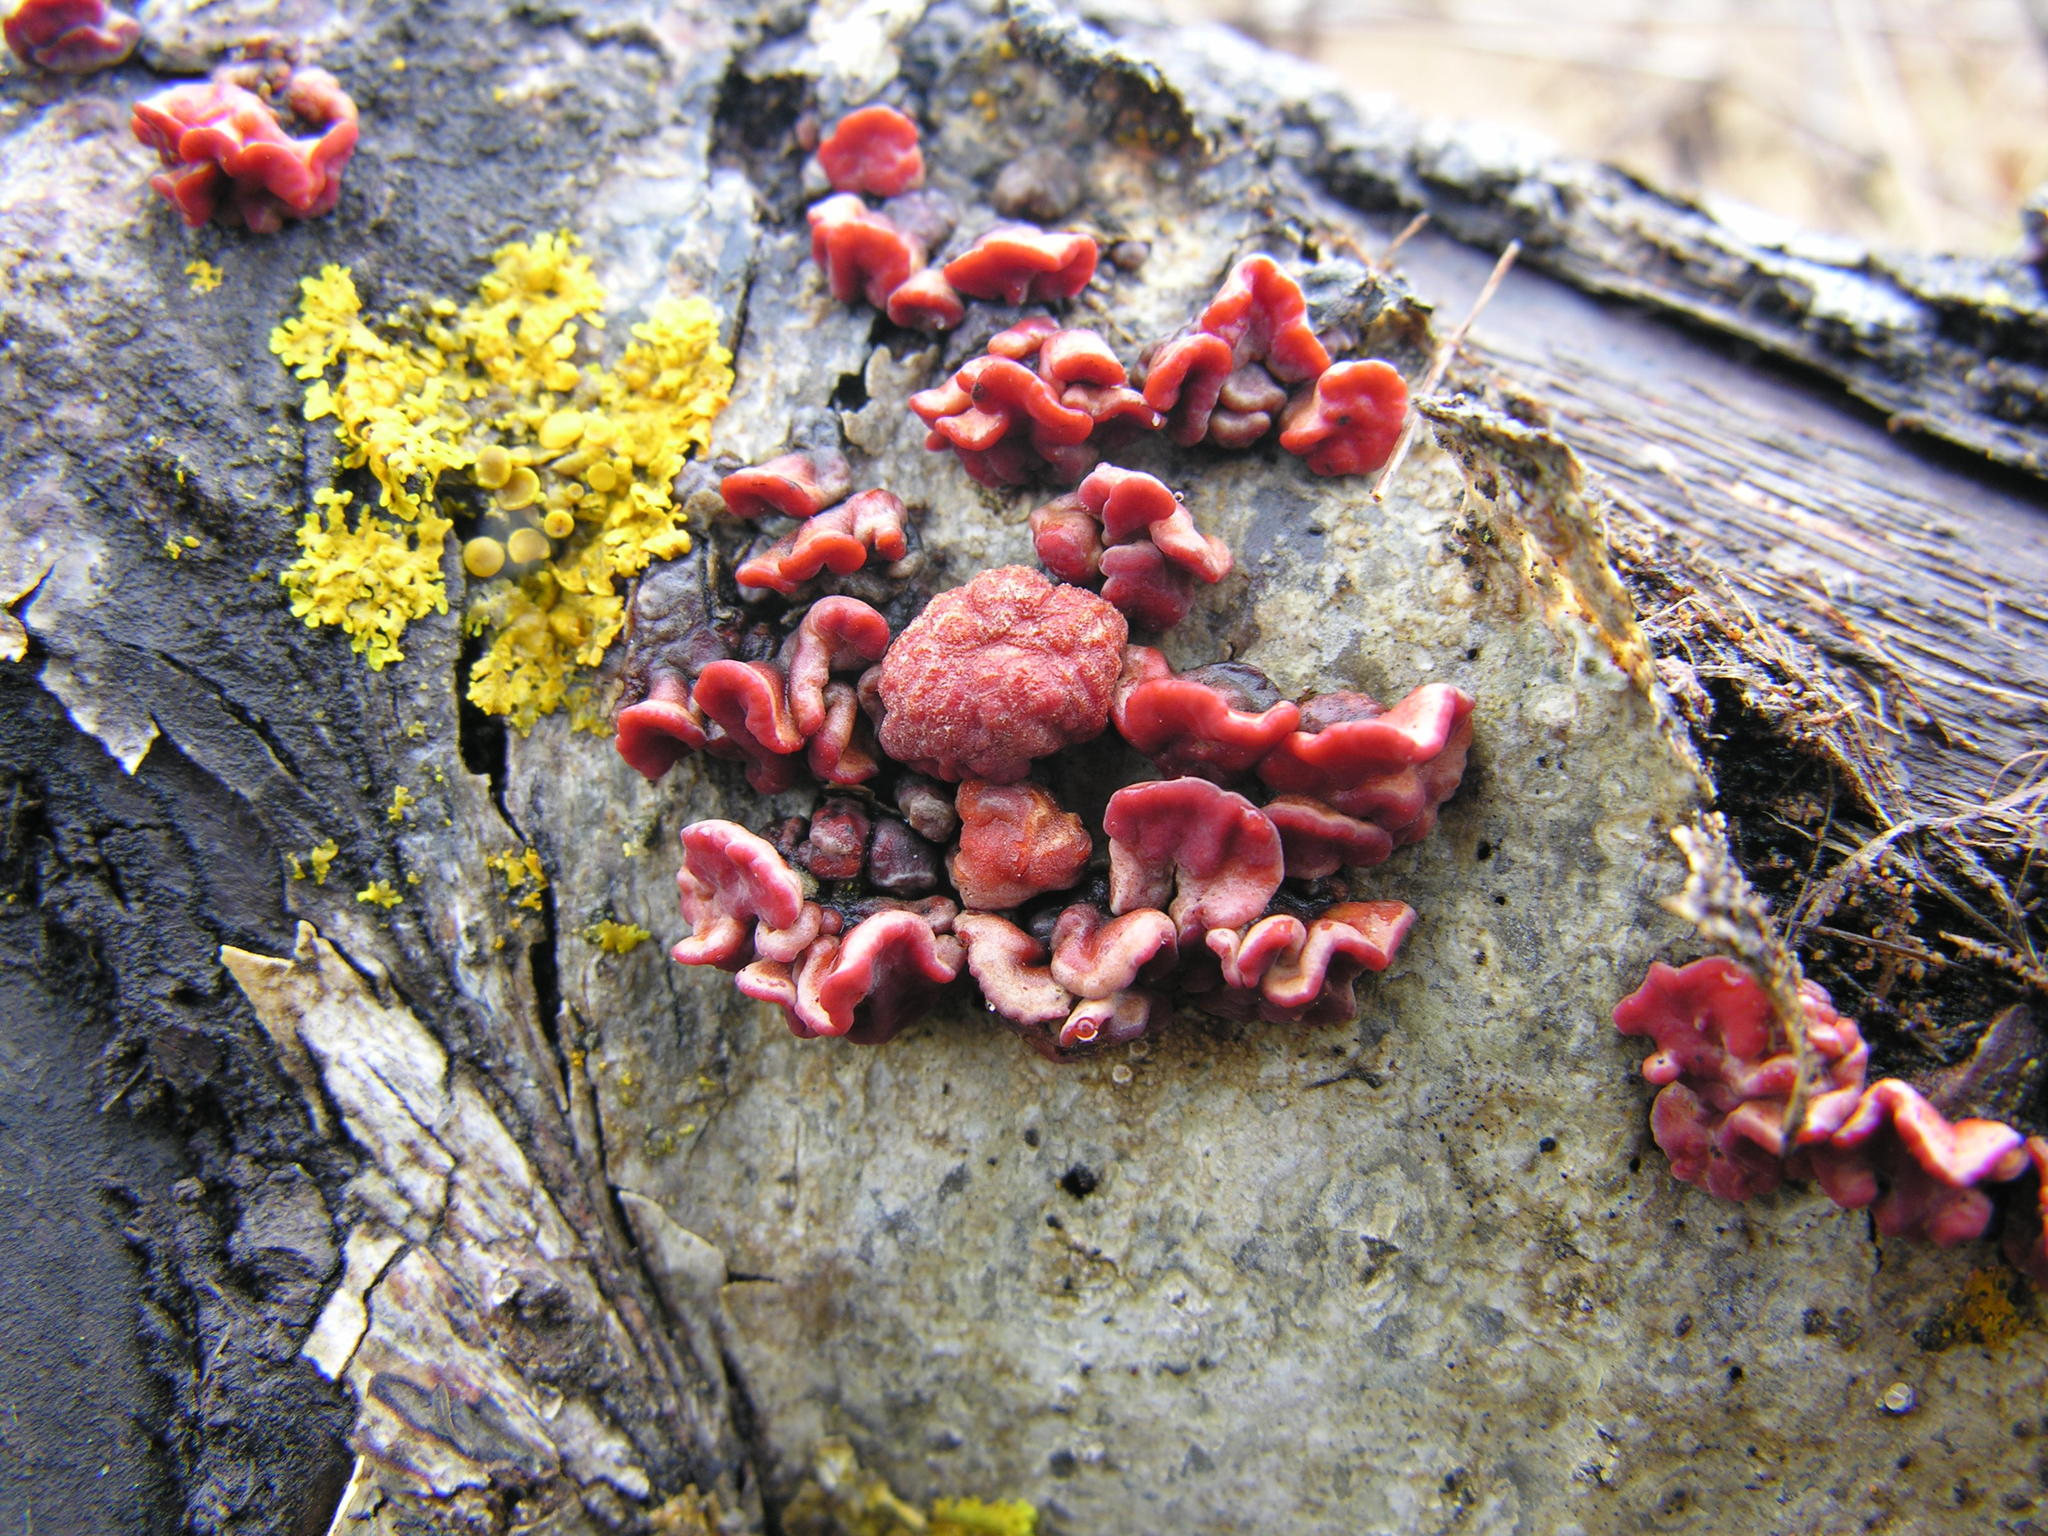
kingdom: Fungi
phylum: Basidiomycota
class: Agaricomycetes
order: Russulales
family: Peniophoraceae
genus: Peniophora
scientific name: Peniophora rufa
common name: Red tree brain fungus
